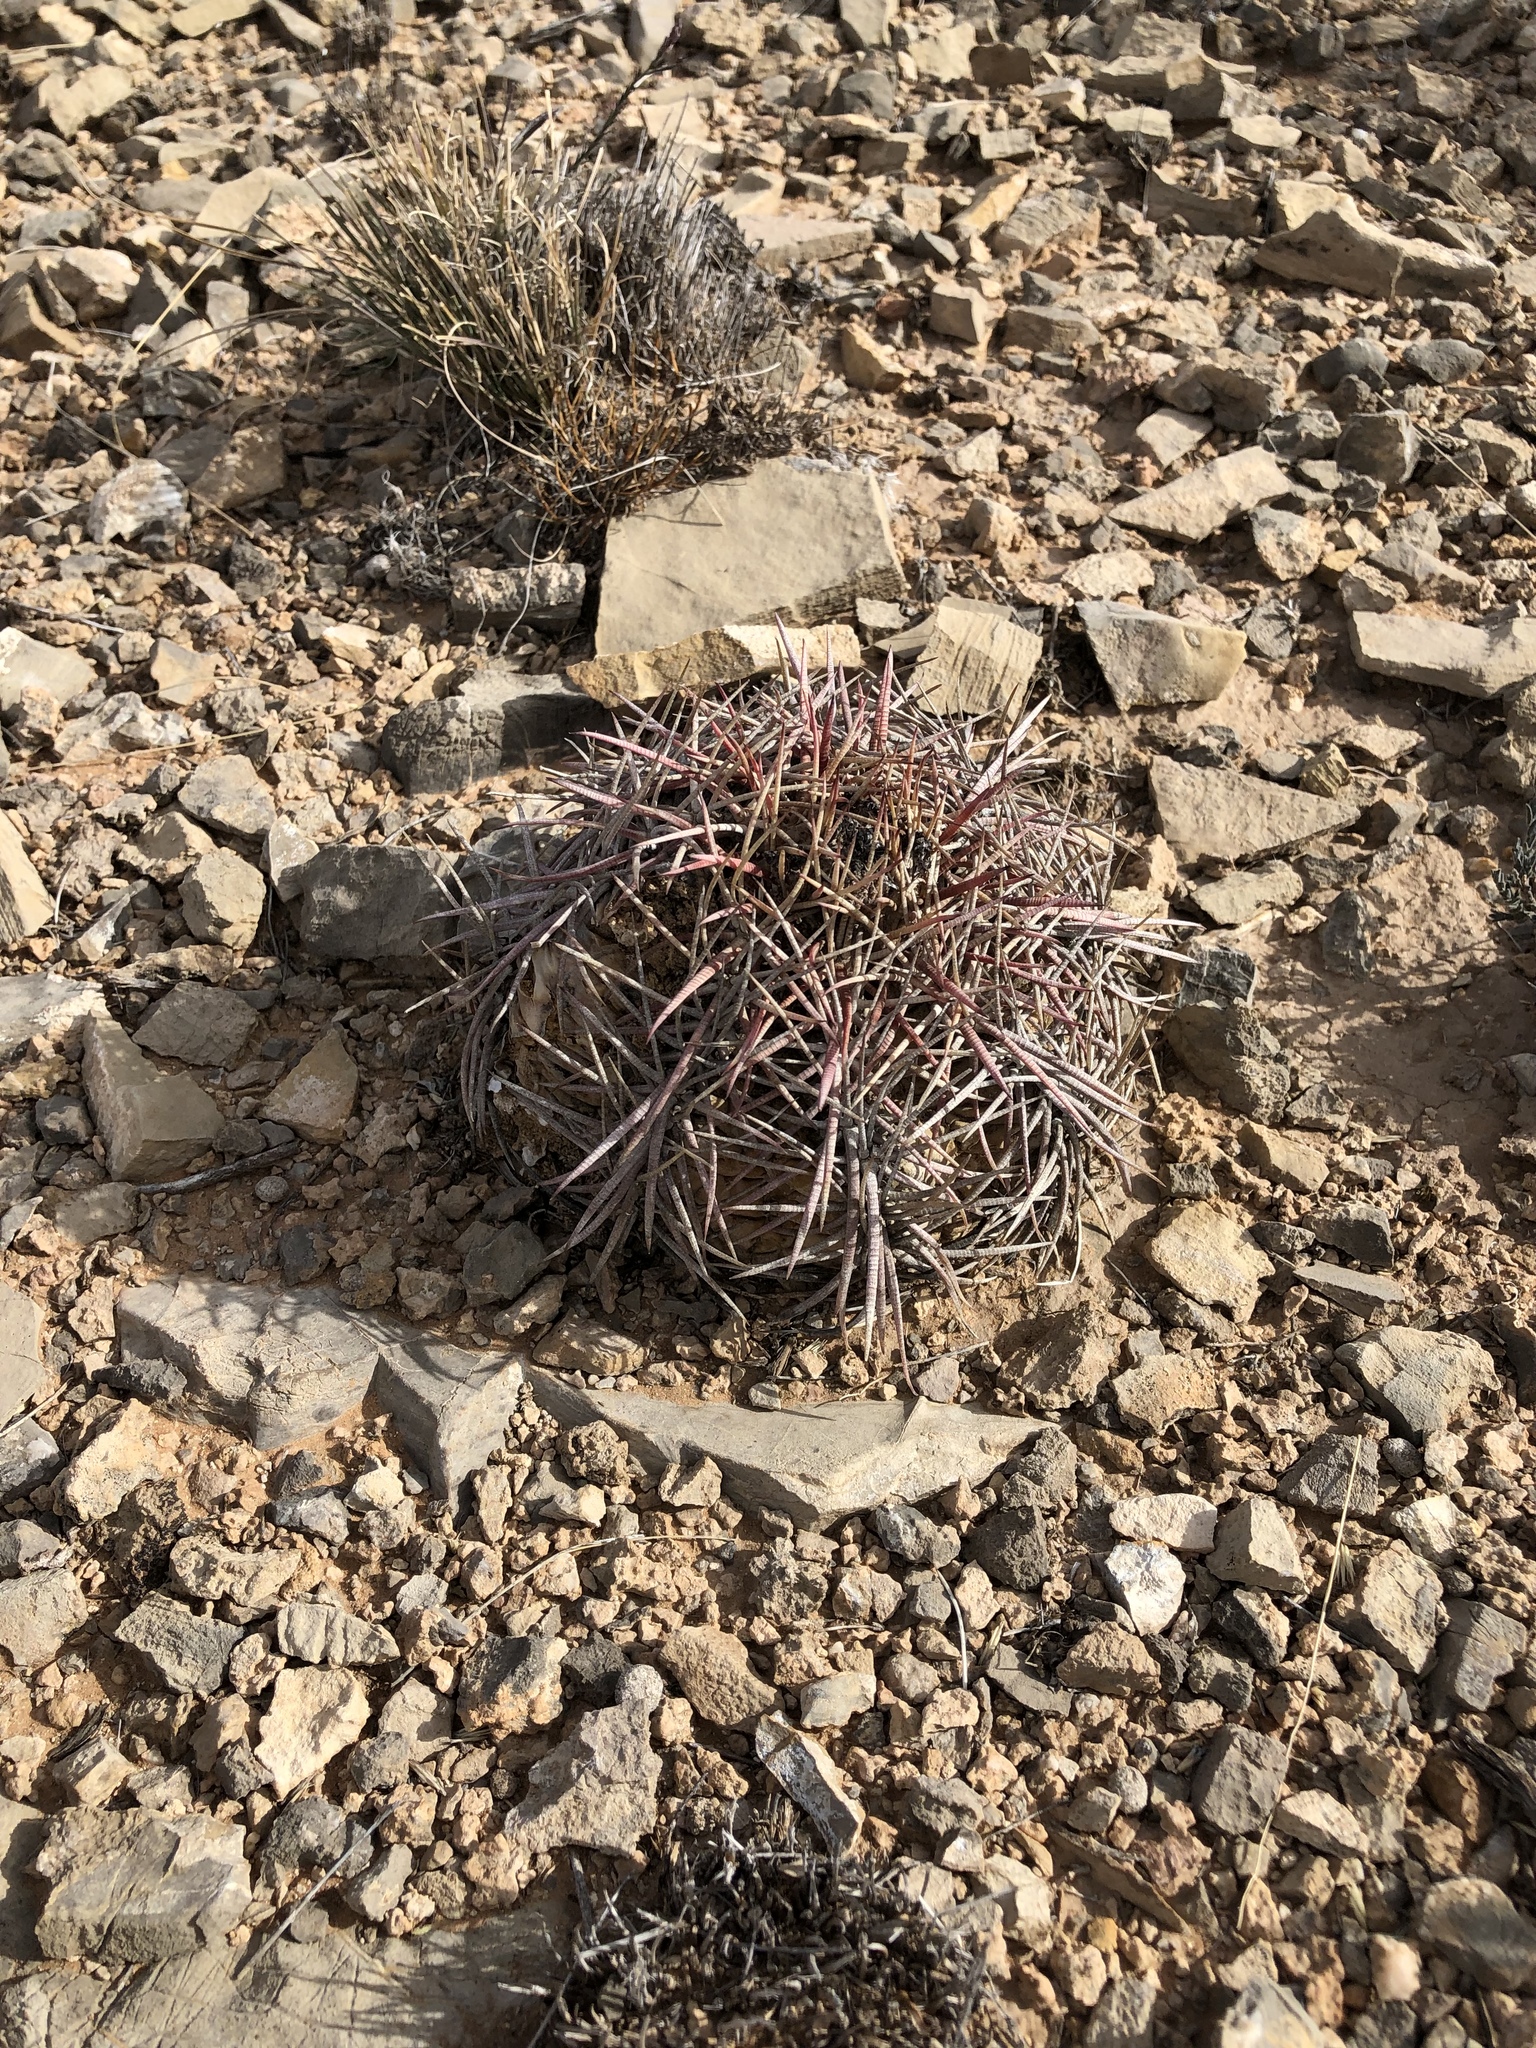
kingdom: Plantae
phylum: Tracheophyta
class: Magnoliopsida
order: Caryophyllales
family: Cactaceae
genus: Echinocactus
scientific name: Echinocactus horizonthalonius
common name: Devilshead
